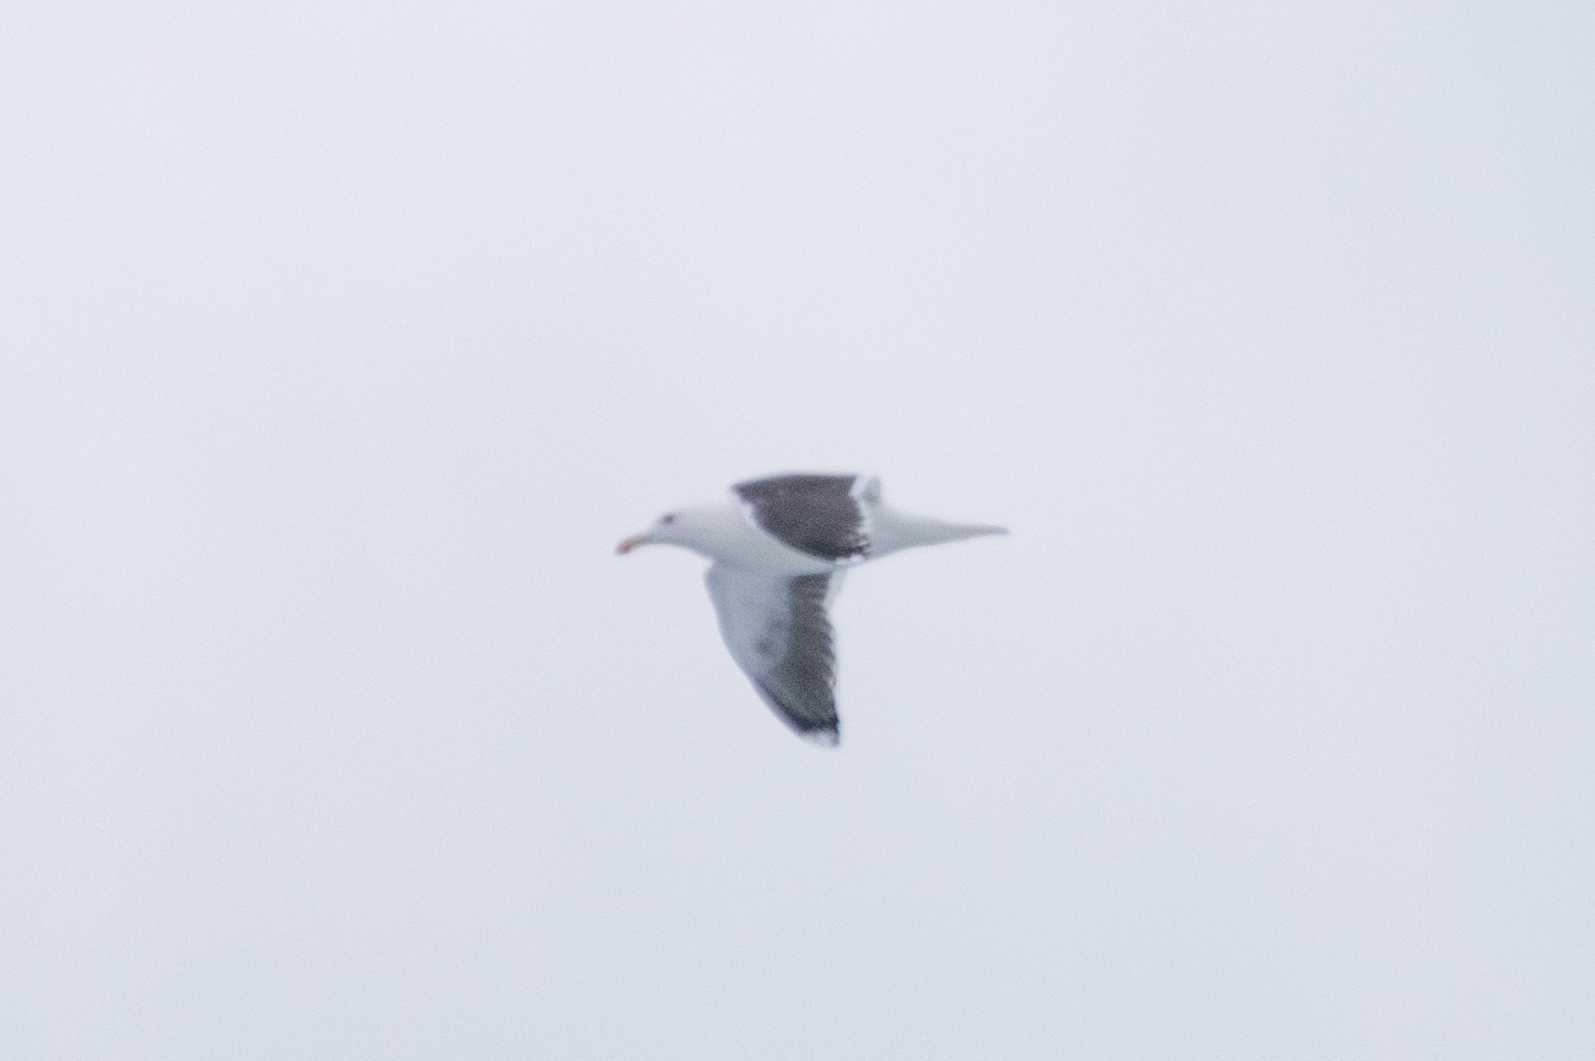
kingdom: Animalia
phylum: Chordata
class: Aves
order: Charadriiformes
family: Laridae
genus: Larus
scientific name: Larus marinus
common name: Great black-backed gull
